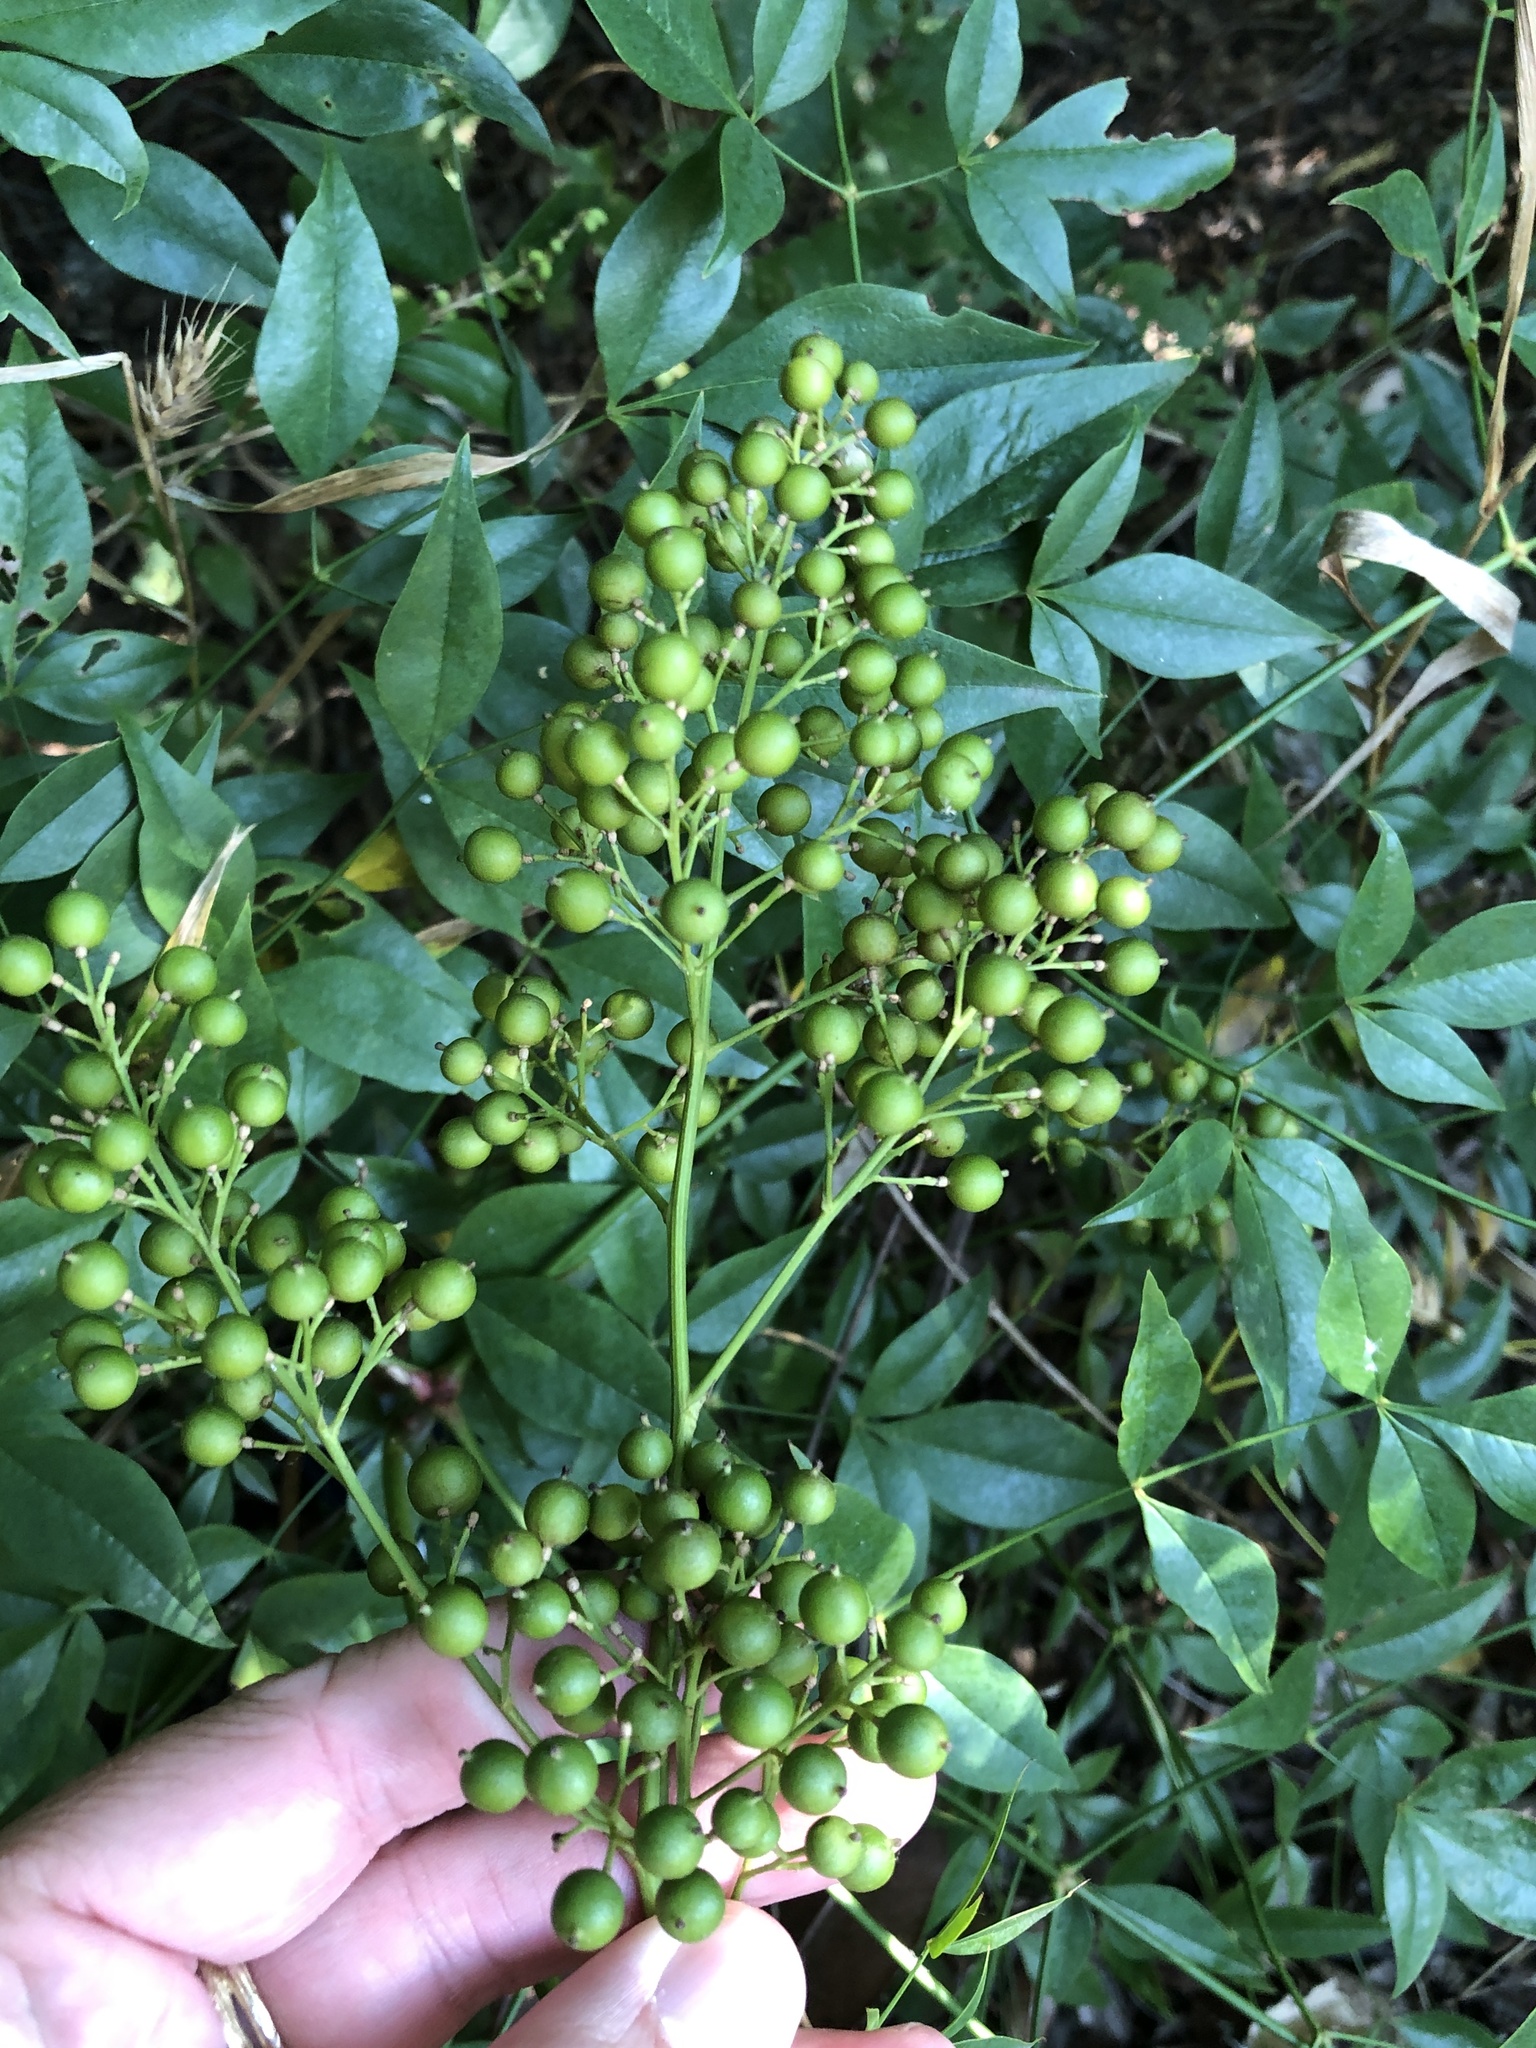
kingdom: Plantae
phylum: Tracheophyta
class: Magnoliopsida
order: Ranunculales
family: Berberidaceae
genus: Nandina
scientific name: Nandina domestica
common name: Sacred bamboo
